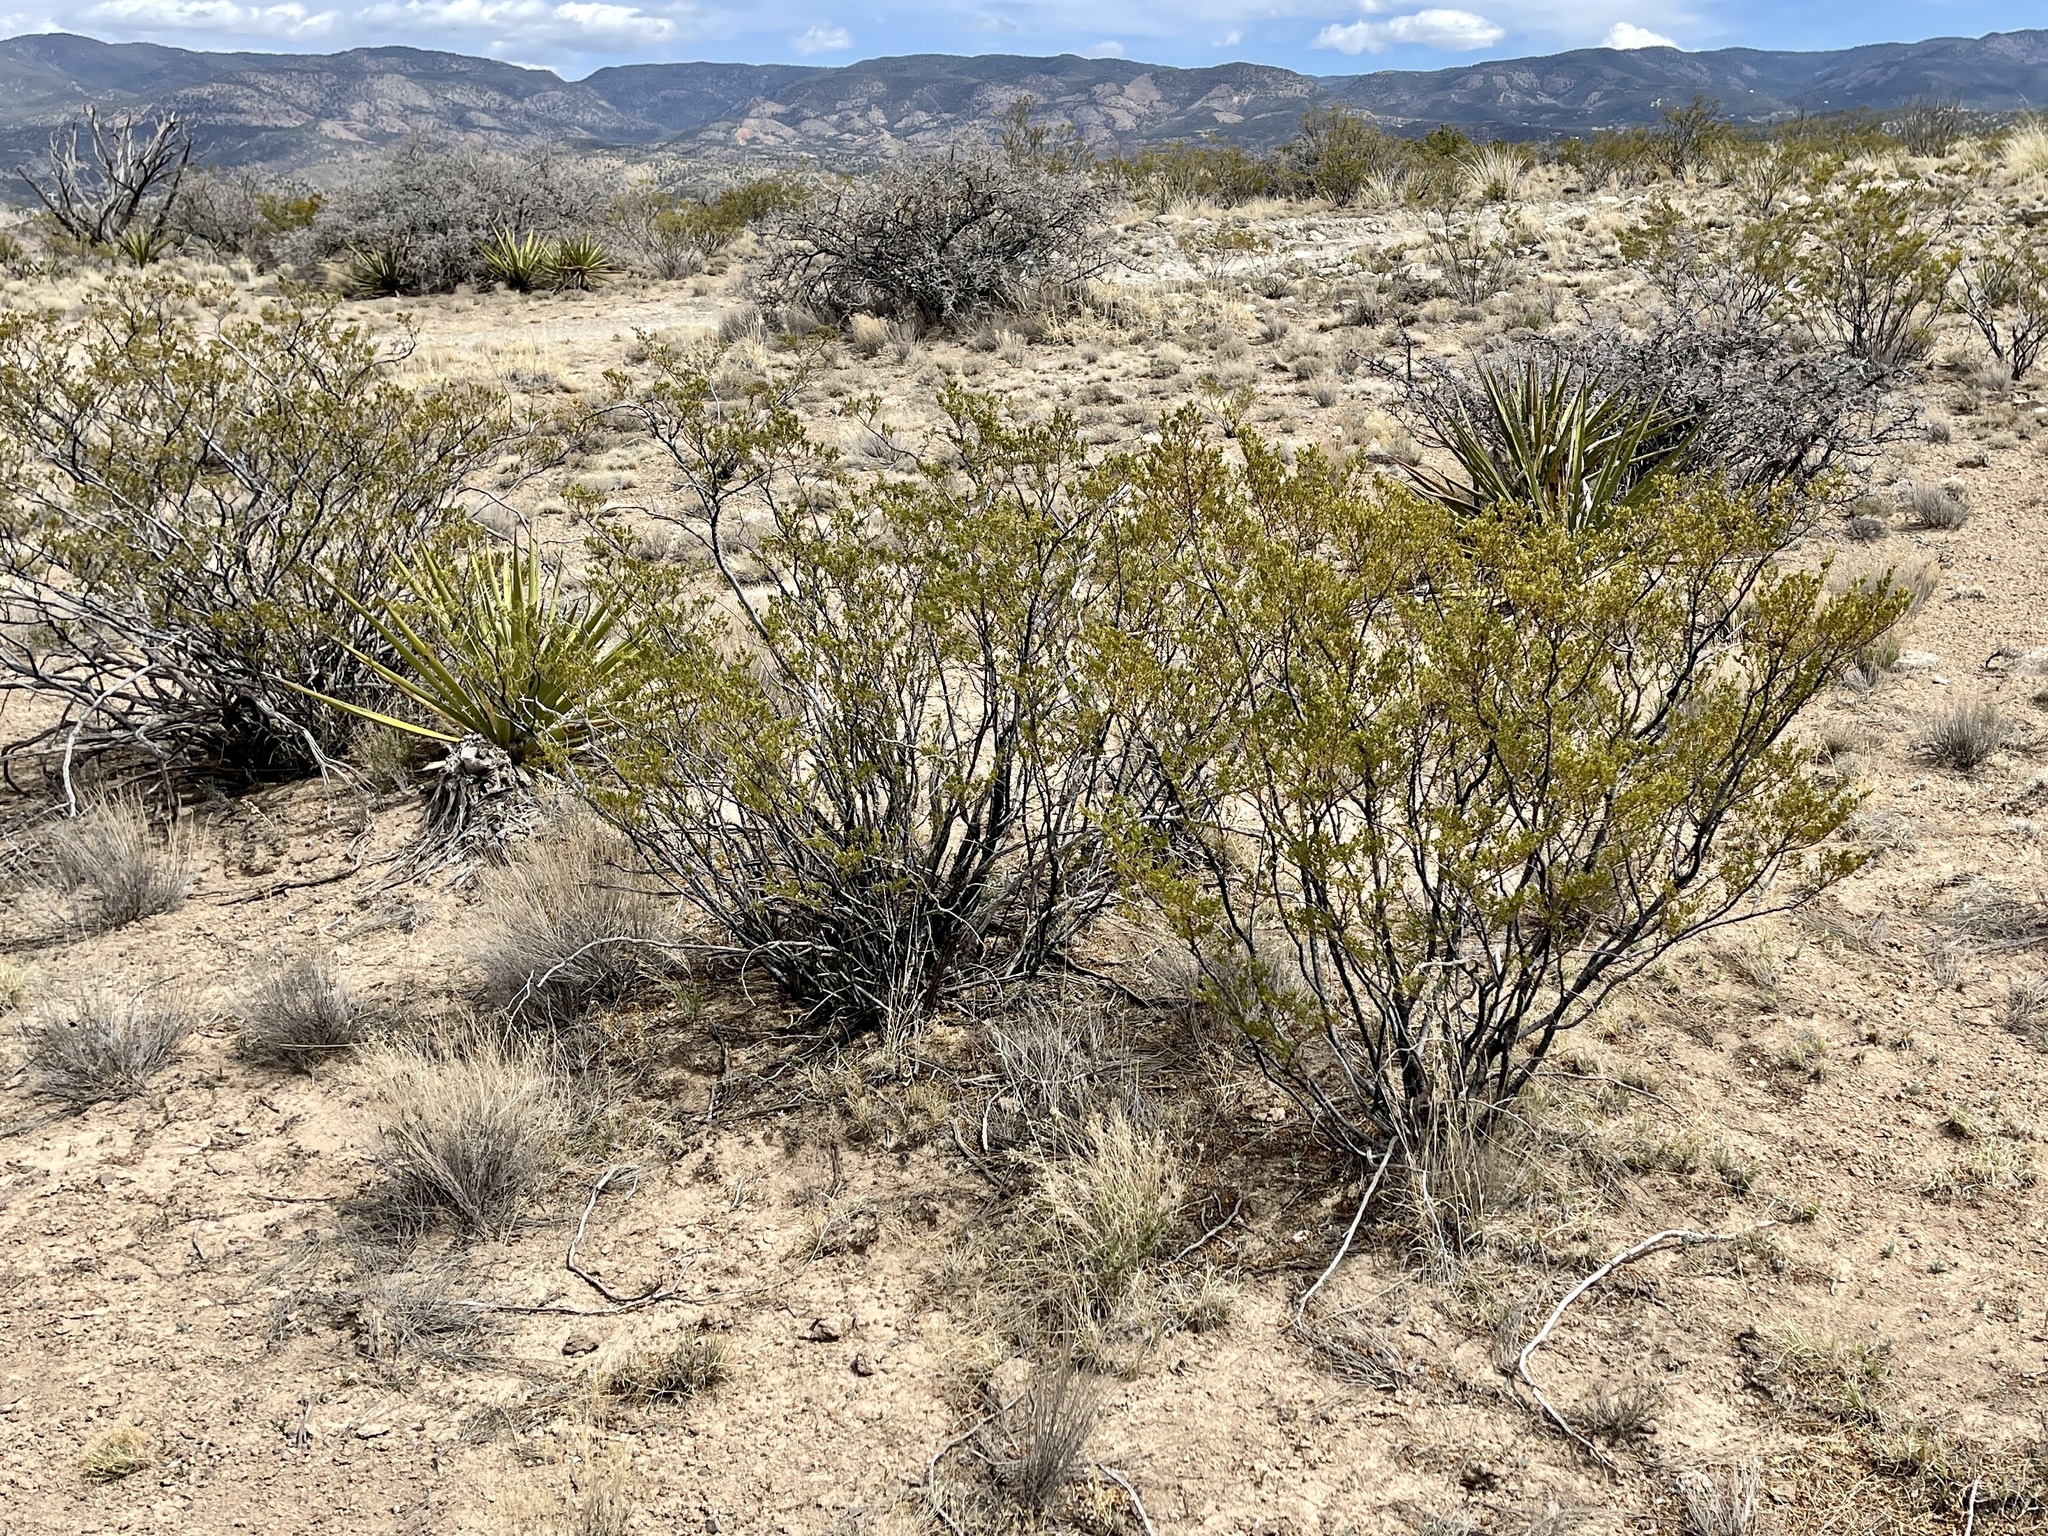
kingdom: Plantae
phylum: Tracheophyta
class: Magnoliopsida
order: Zygophyllales
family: Zygophyllaceae
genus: Larrea
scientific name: Larrea tridentata
